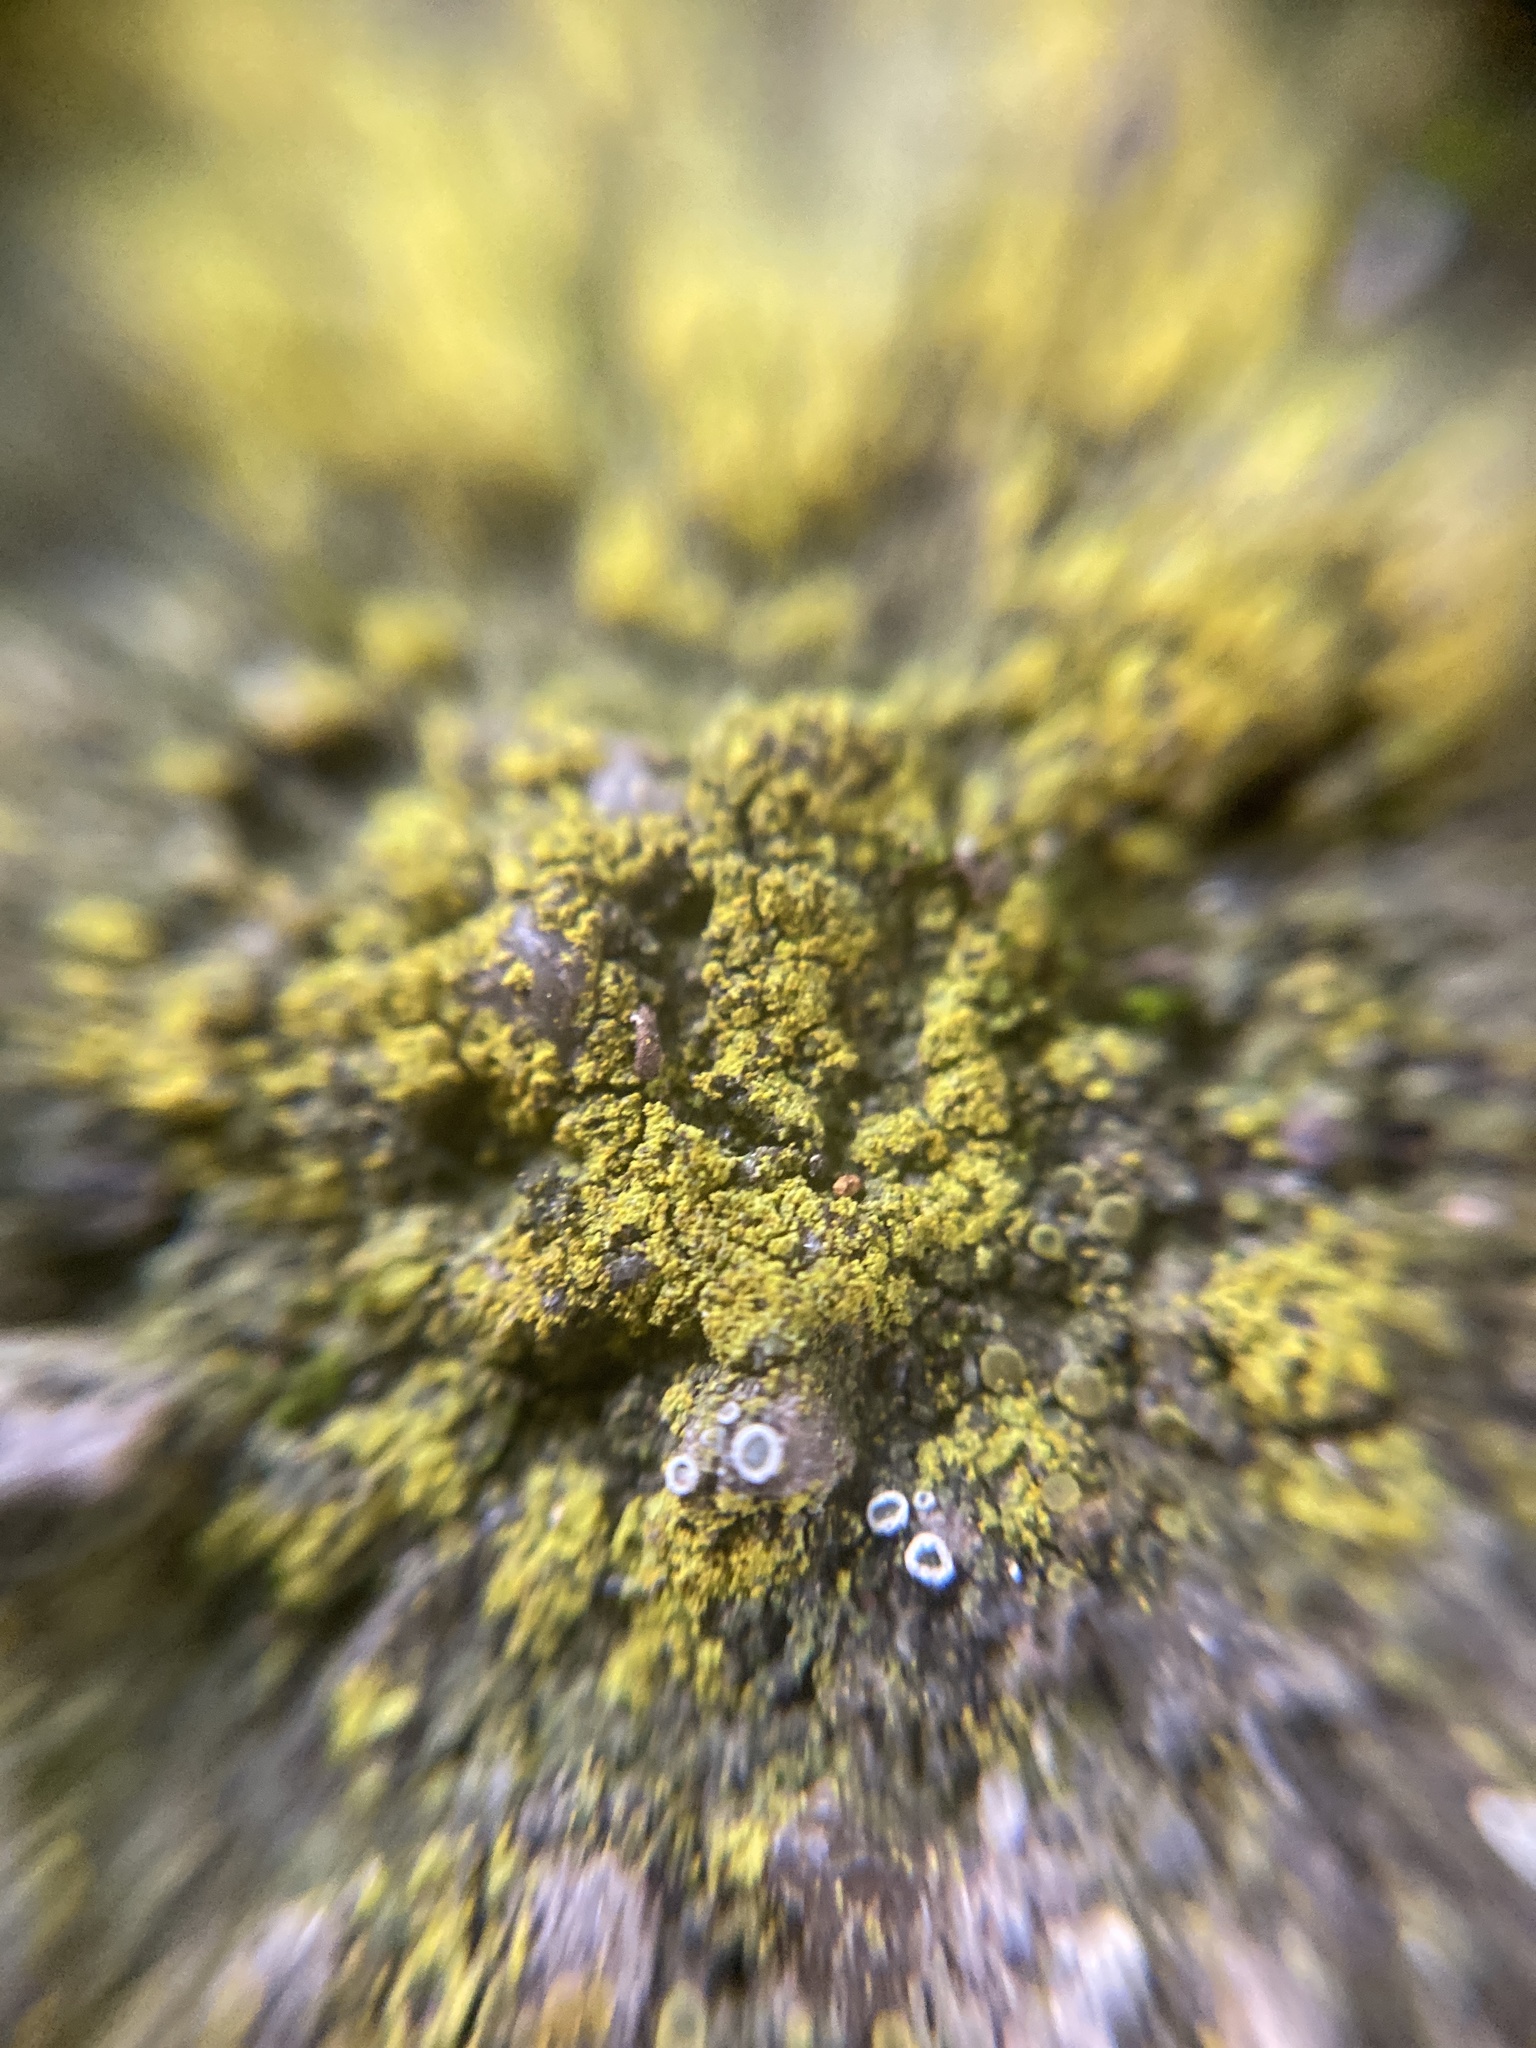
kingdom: Fungi
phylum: Ascomycota
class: Lecanoromycetes
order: Teloschistales
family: Teloschistaceae
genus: Flavoplaca
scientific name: Flavoplaca flavocitrina
